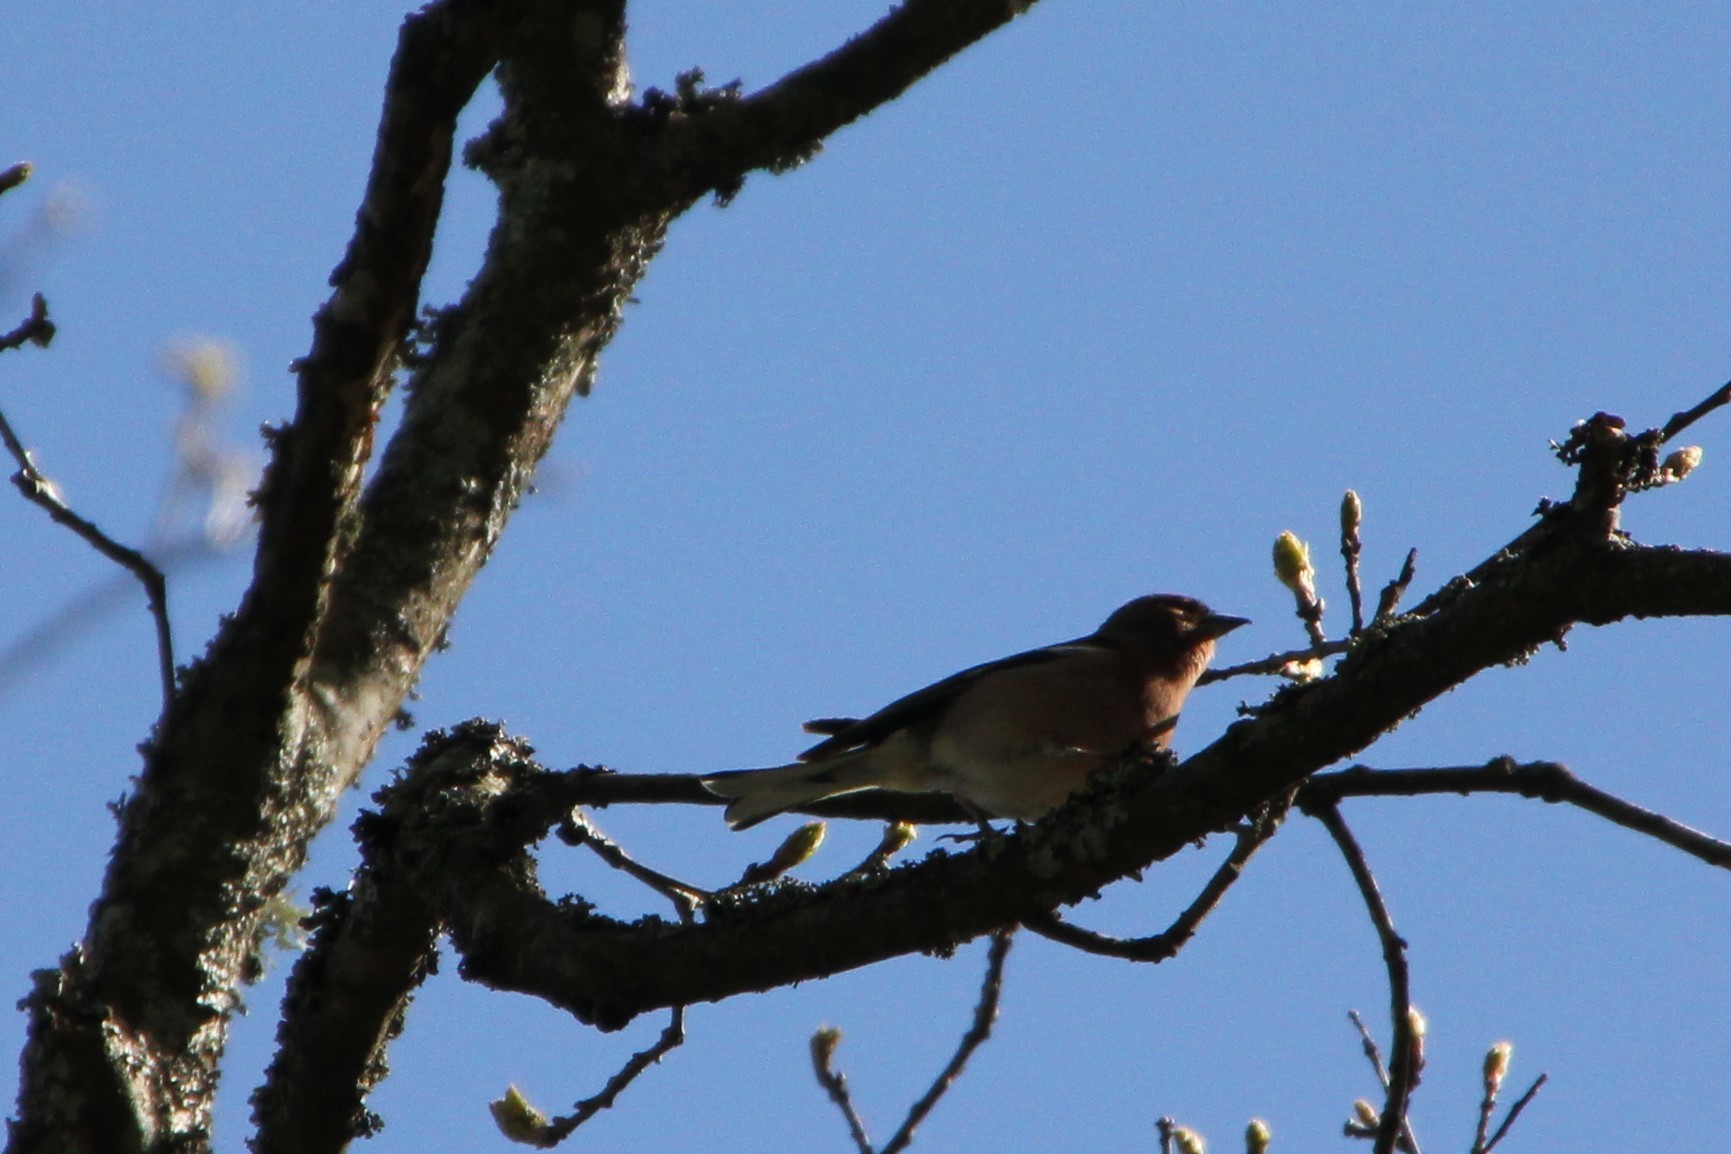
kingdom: Animalia
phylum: Chordata
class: Aves
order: Passeriformes
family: Fringillidae
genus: Fringilla
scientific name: Fringilla coelebs
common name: Common chaffinch
